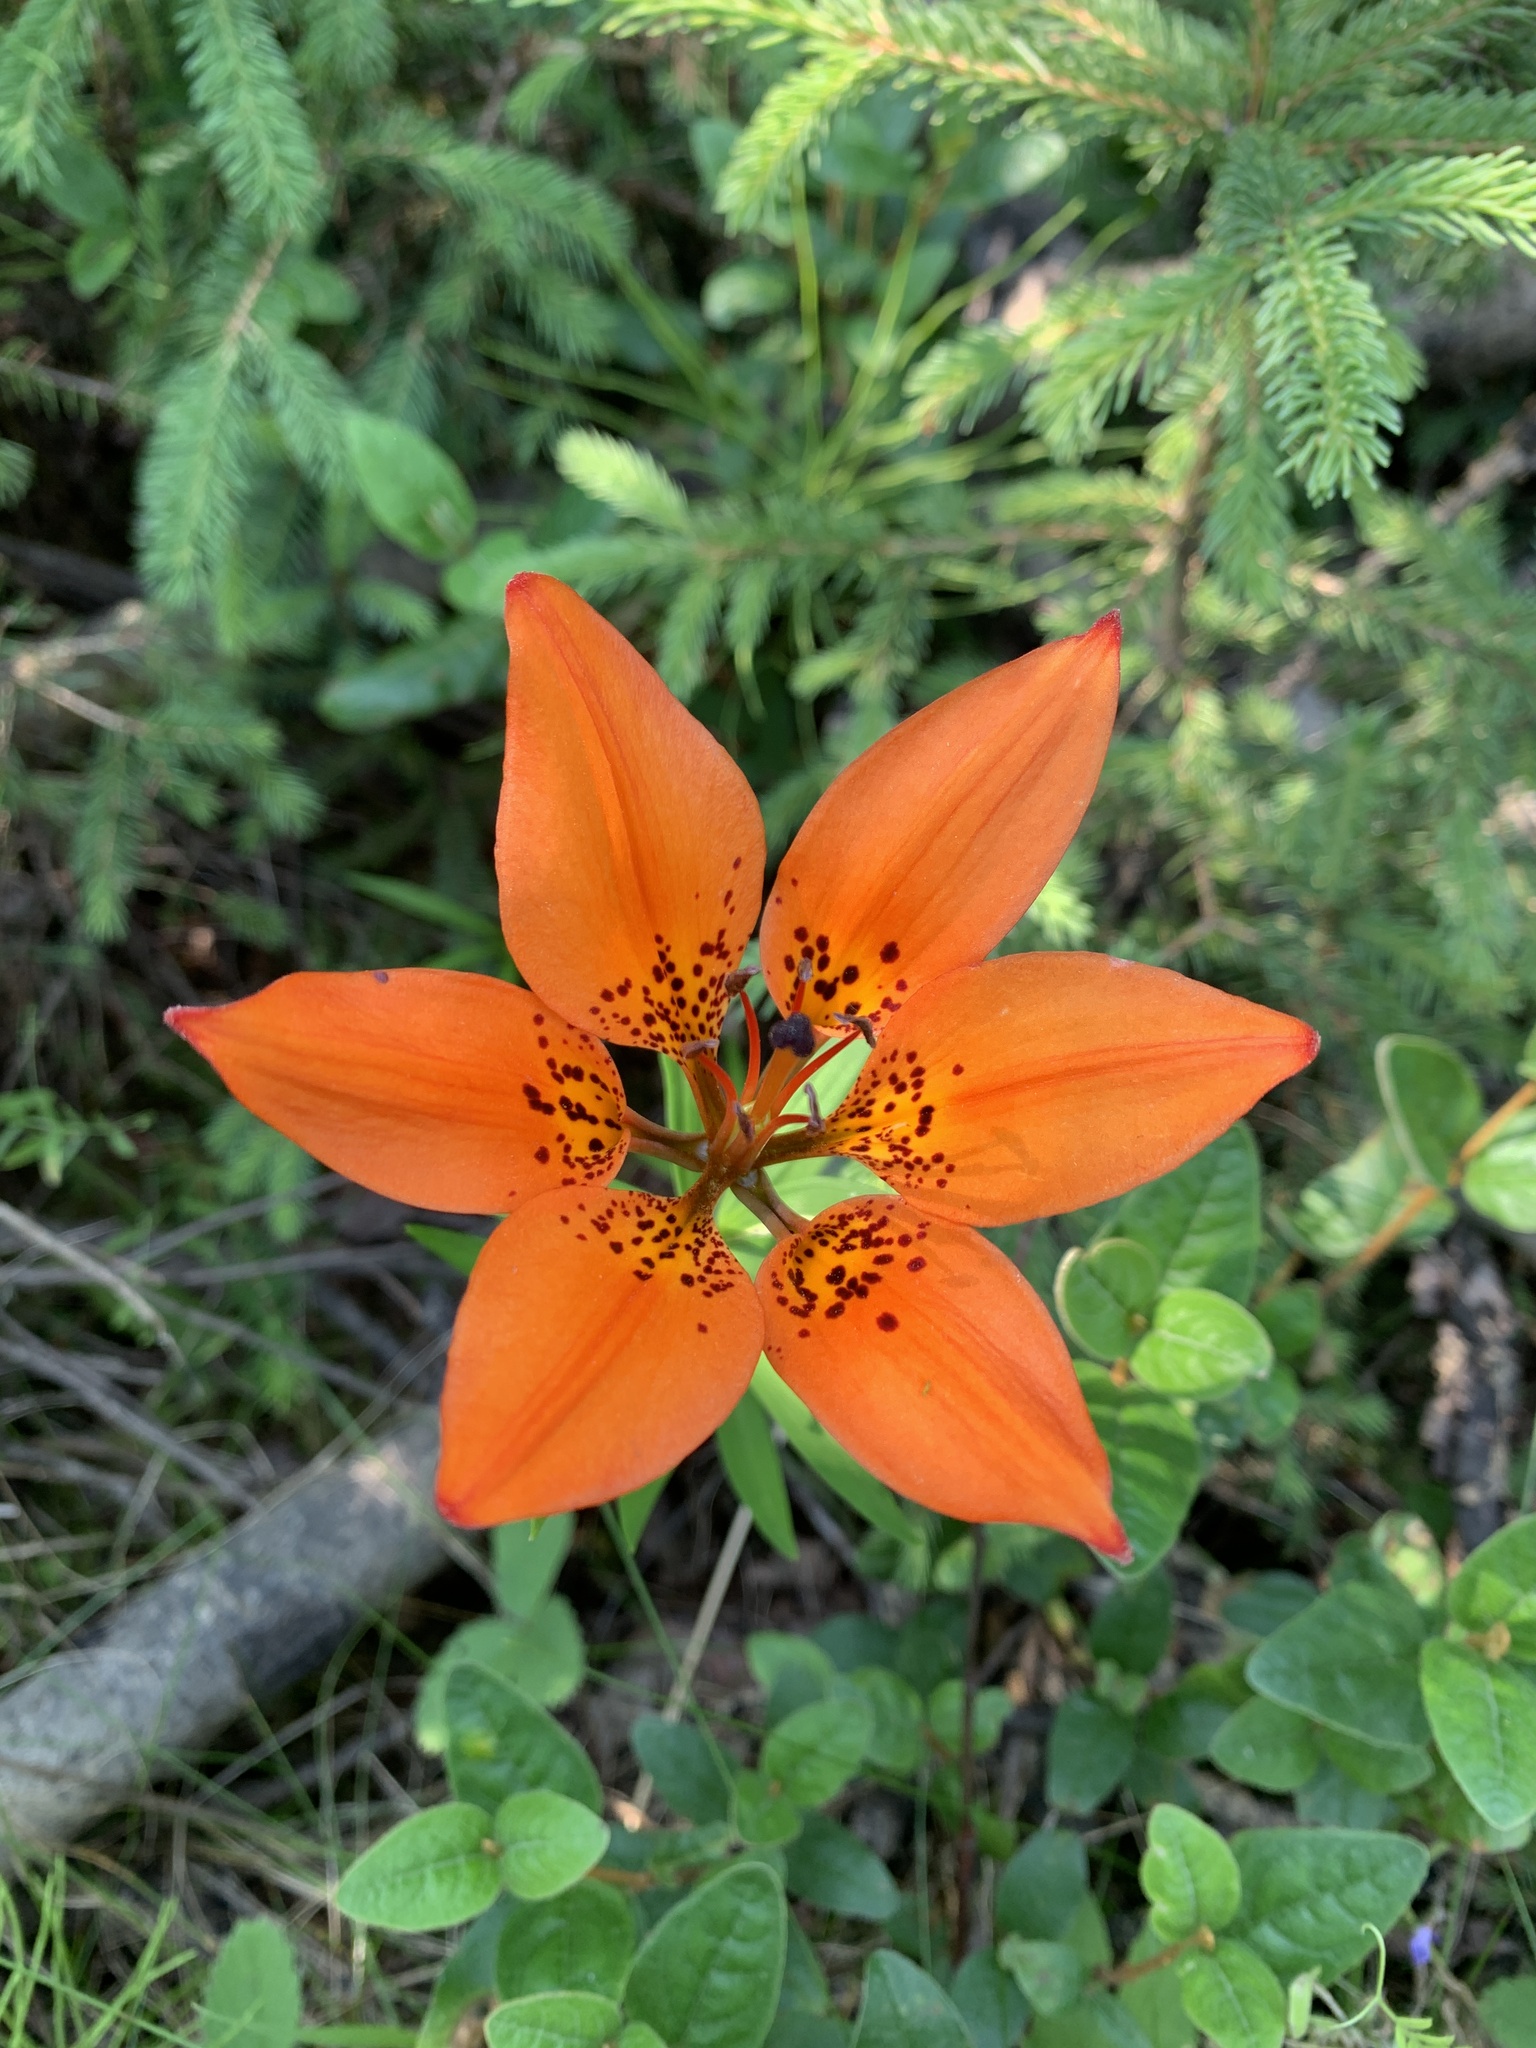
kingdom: Plantae
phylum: Tracheophyta
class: Liliopsida
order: Liliales
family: Liliaceae
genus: Lilium
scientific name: Lilium philadelphicum
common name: Red lily
